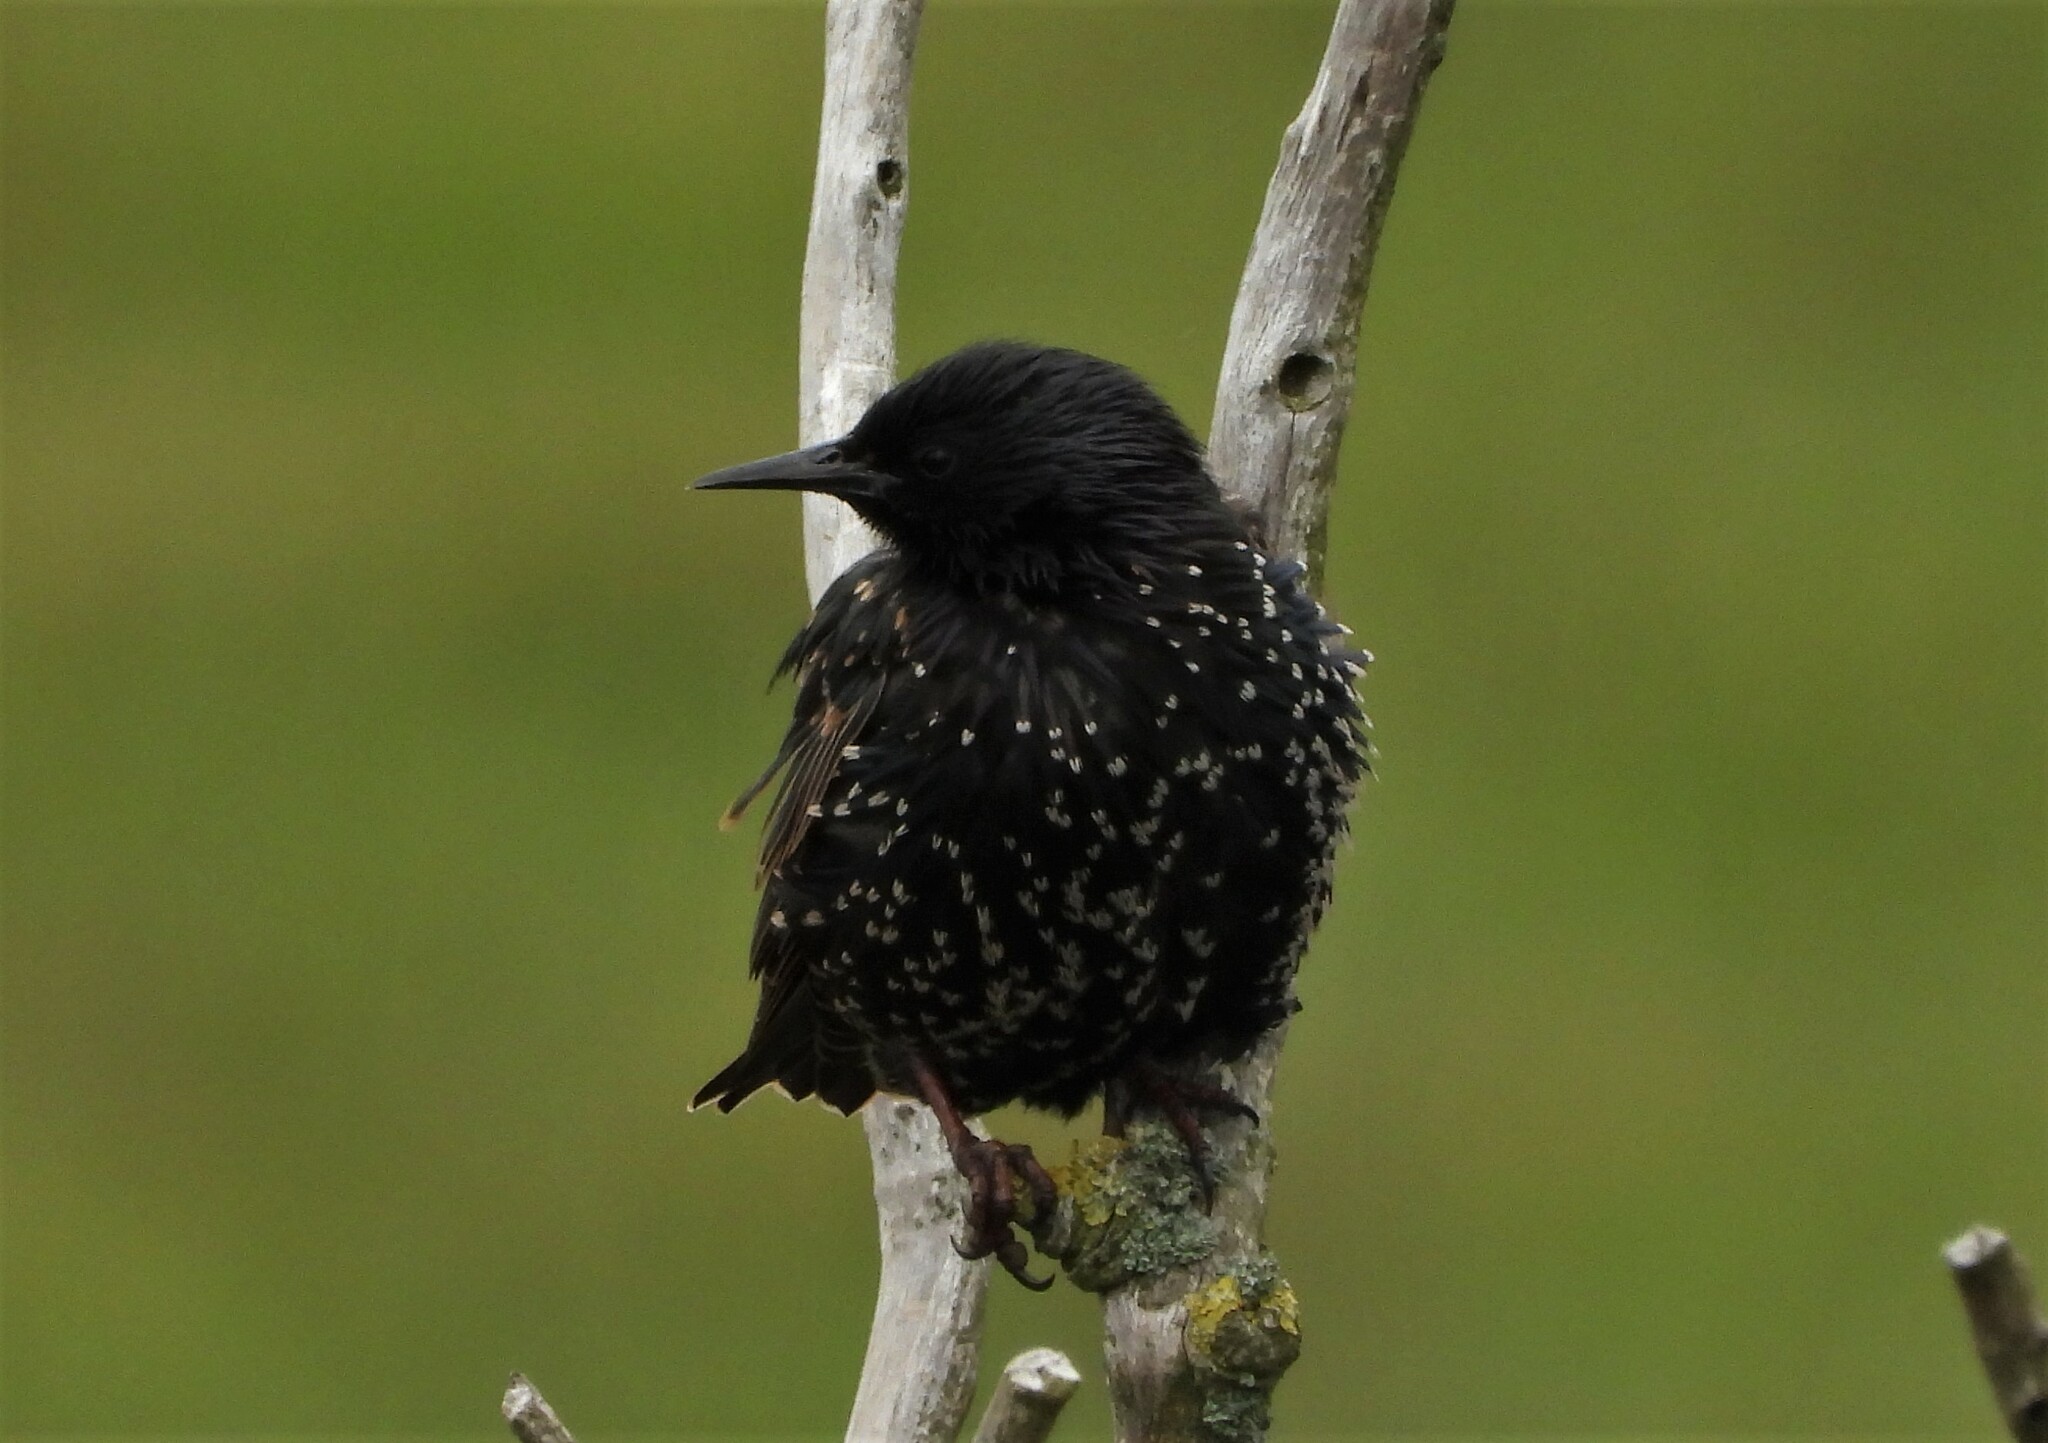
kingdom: Animalia
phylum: Chordata
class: Aves
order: Passeriformes
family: Sturnidae
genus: Sturnus
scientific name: Sturnus vulgaris
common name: Common starling
